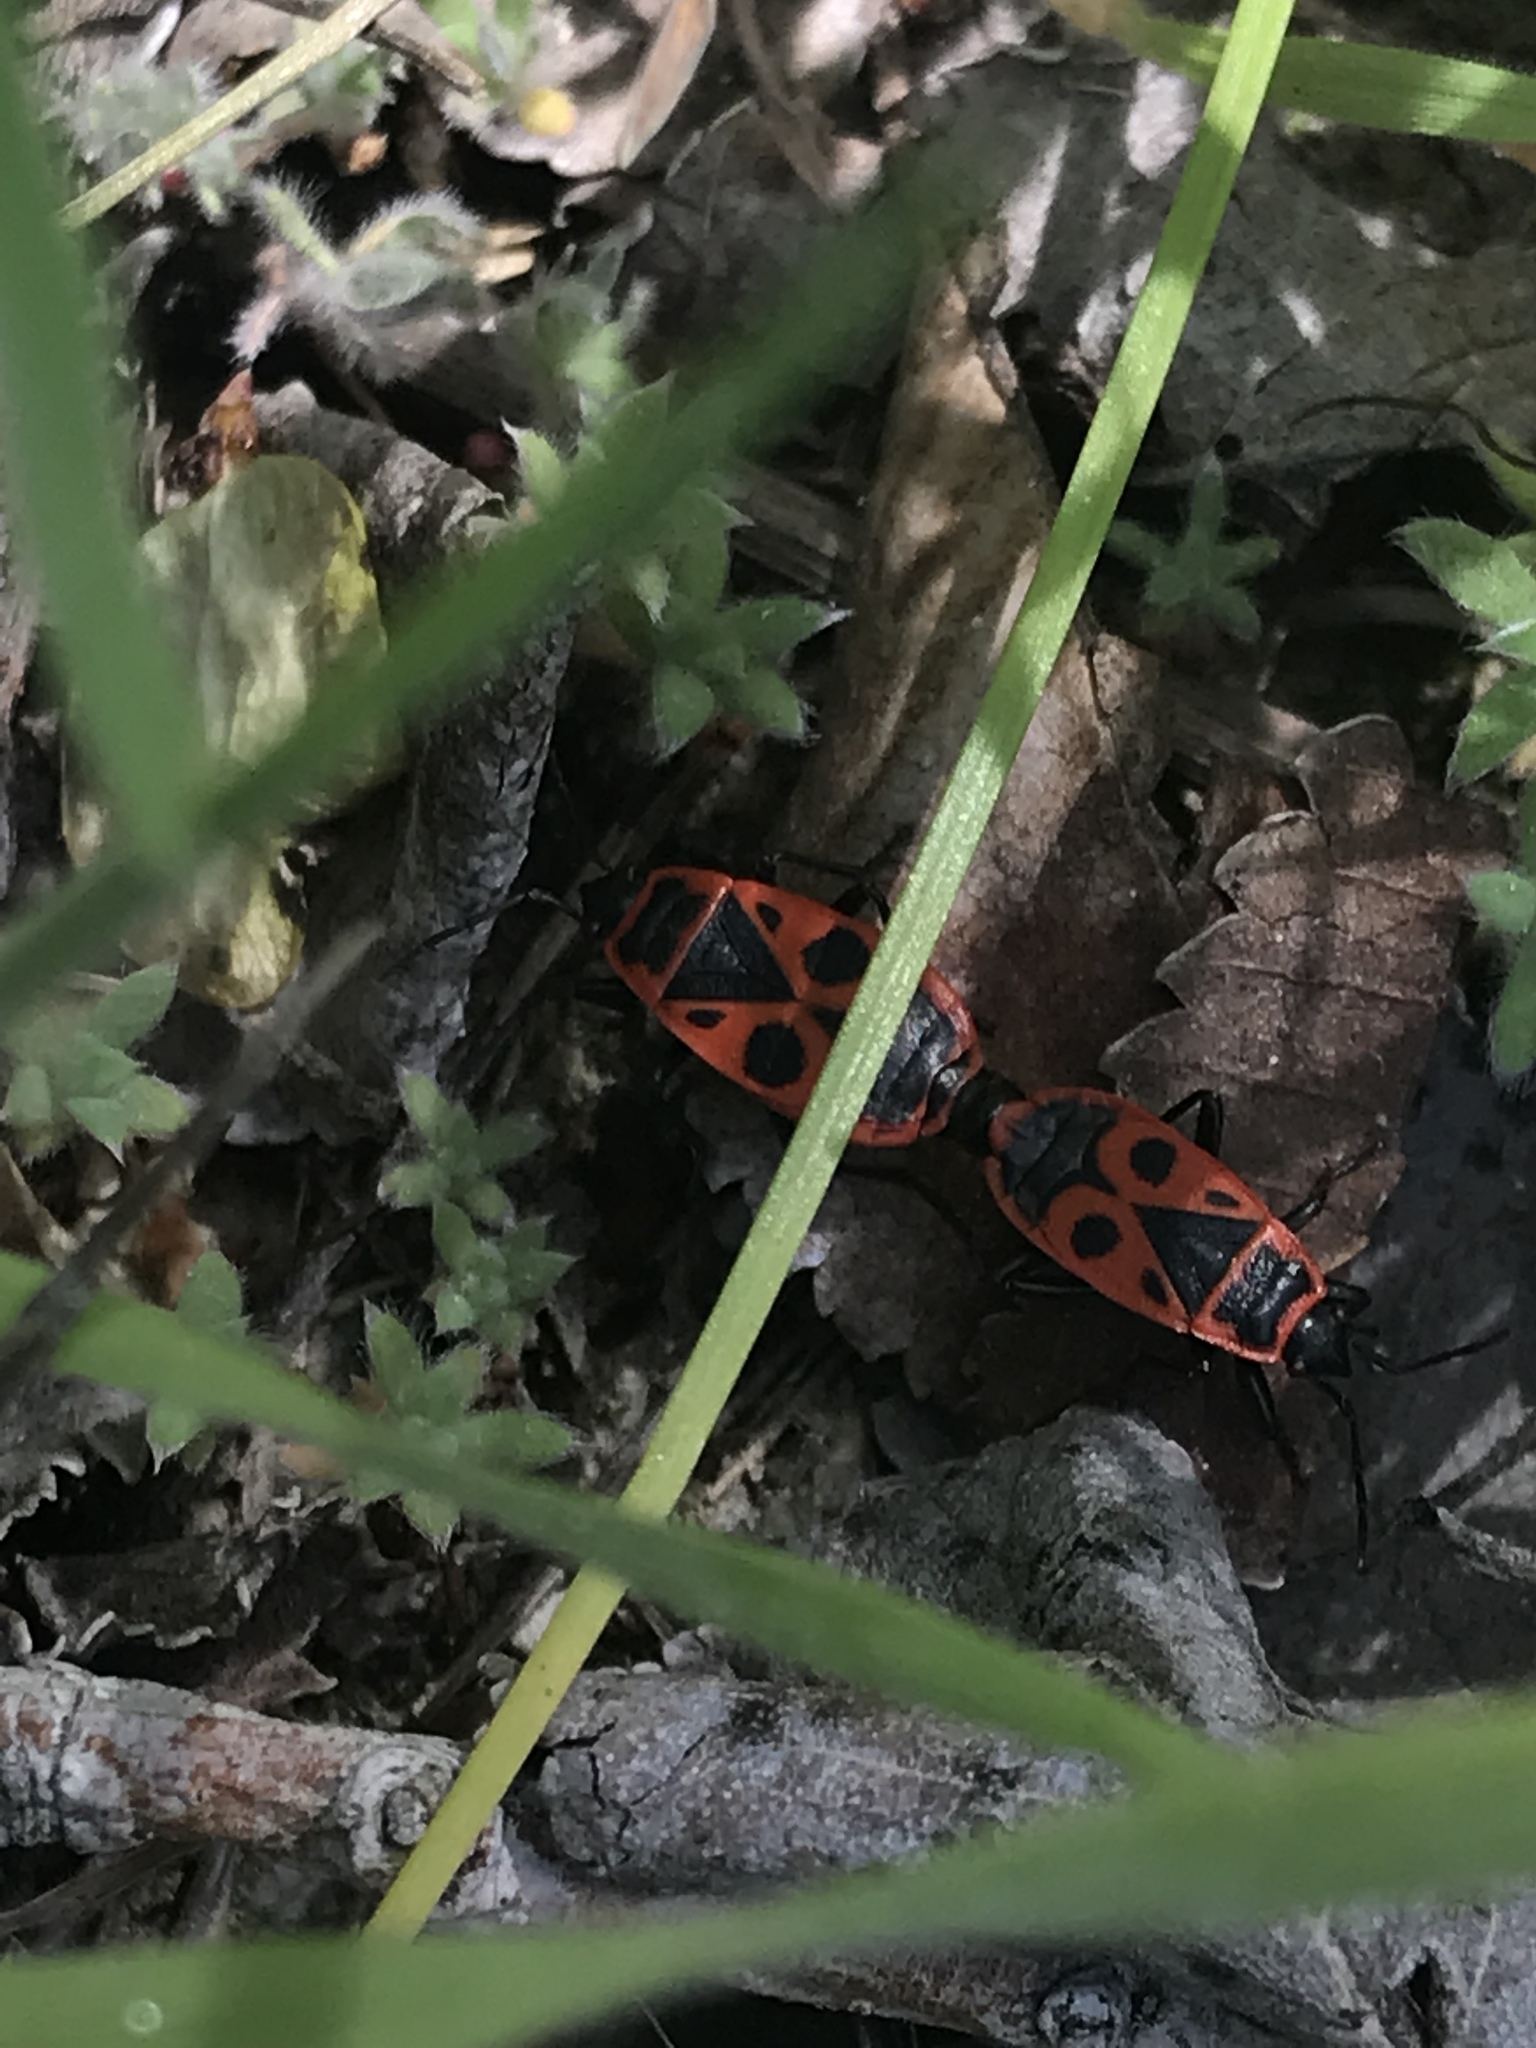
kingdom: Animalia
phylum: Arthropoda
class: Insecta
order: Hemiptera
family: Pyrrhocoridae
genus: Pyrrhocoris
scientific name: Pyrrhocoris apterus
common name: Firebug
